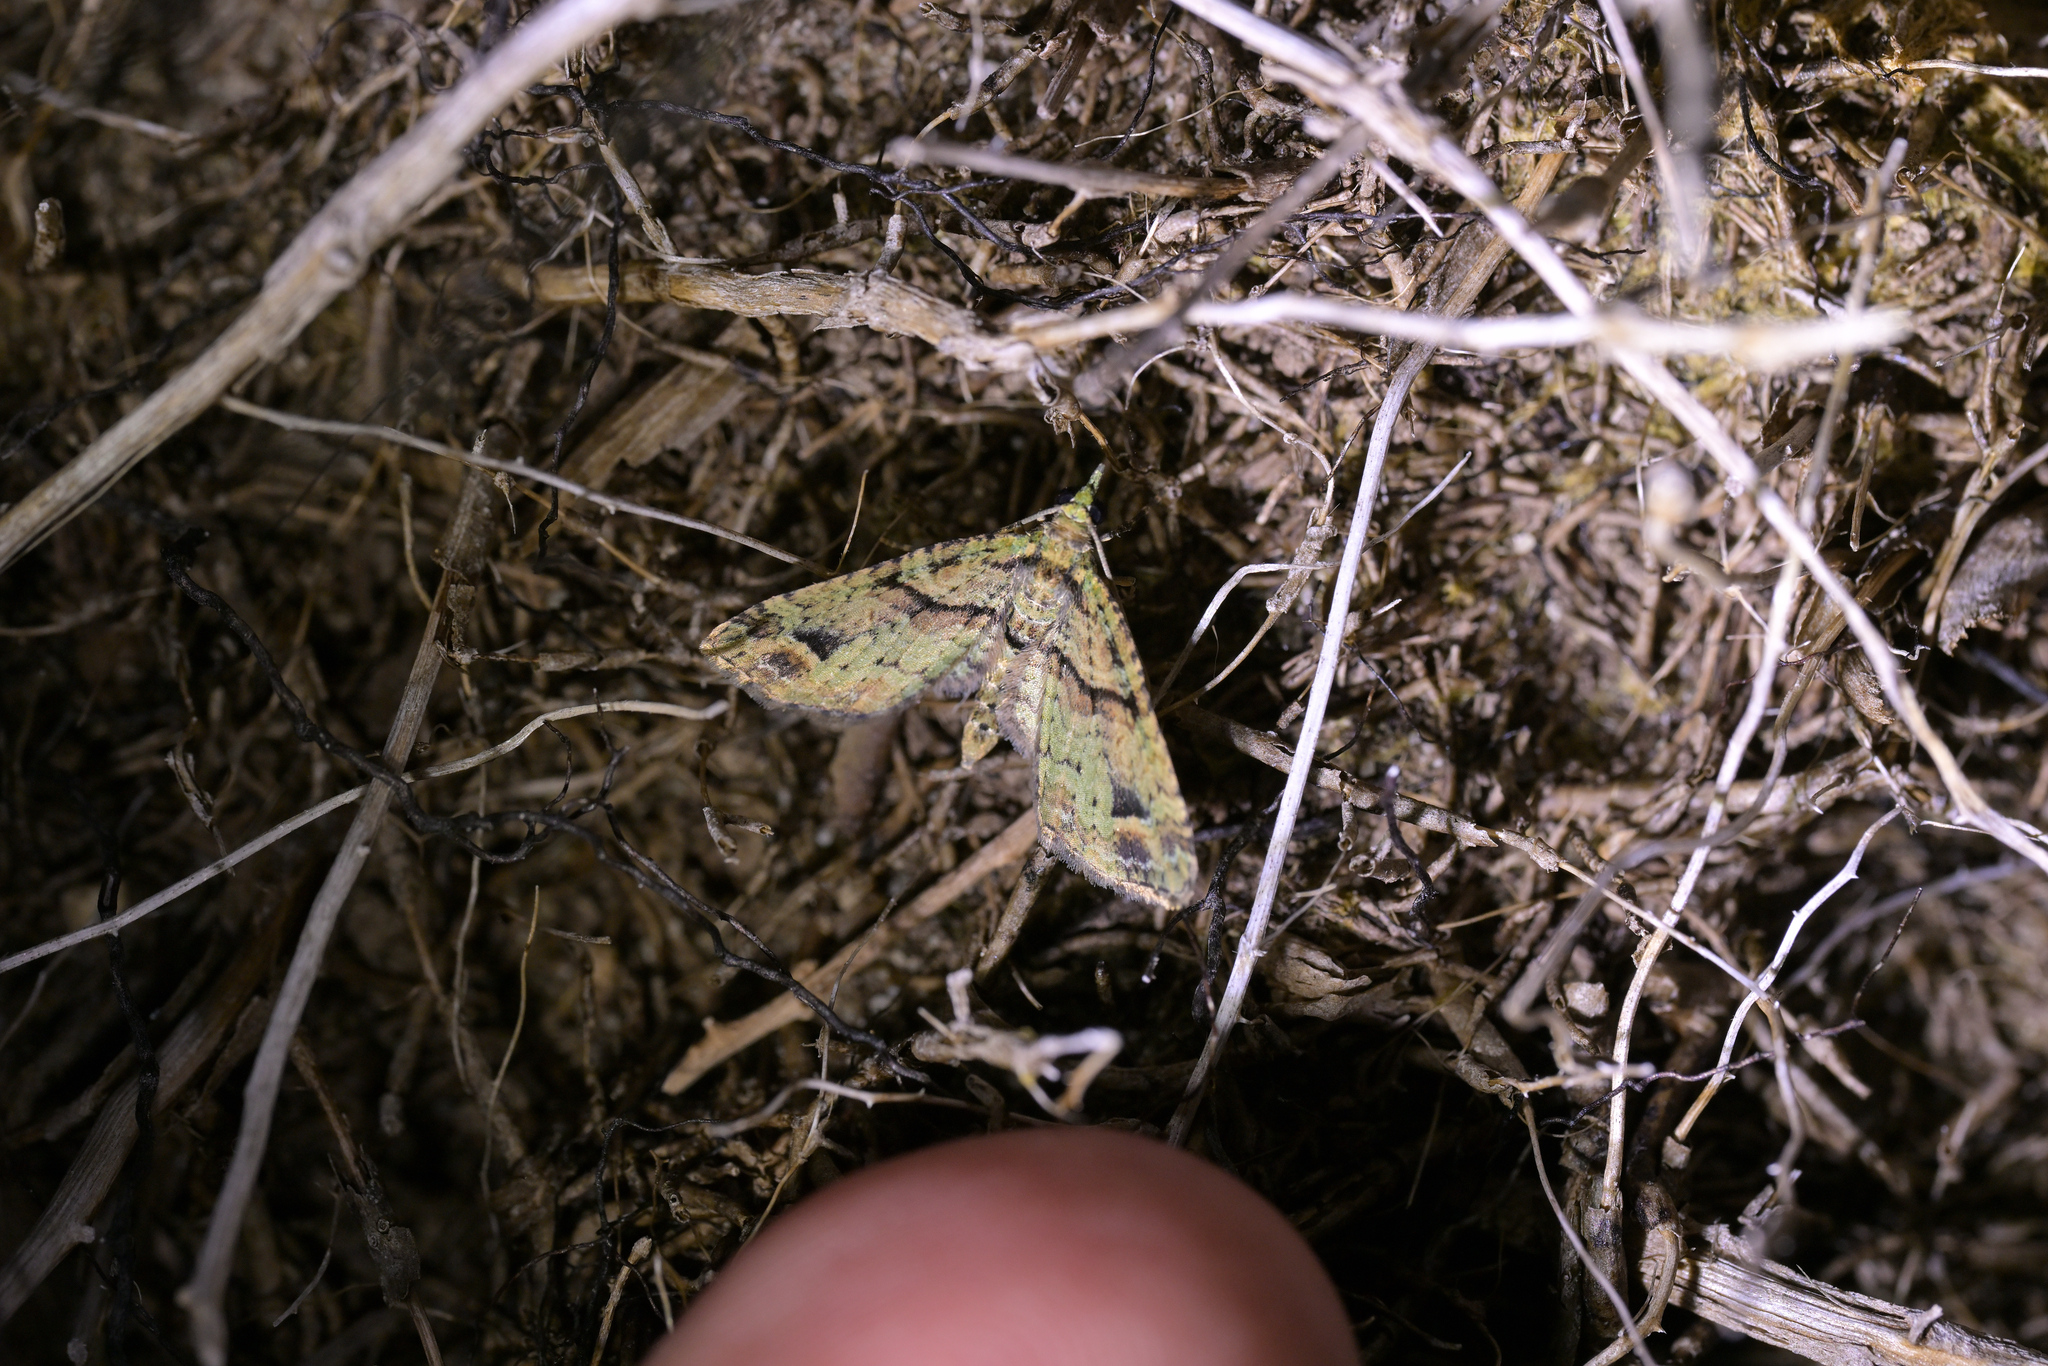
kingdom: Animalia
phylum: Arthropoda
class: Insecta
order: Lepidoptera
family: Geometridae
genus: Idaea
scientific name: Idaea mutanda
